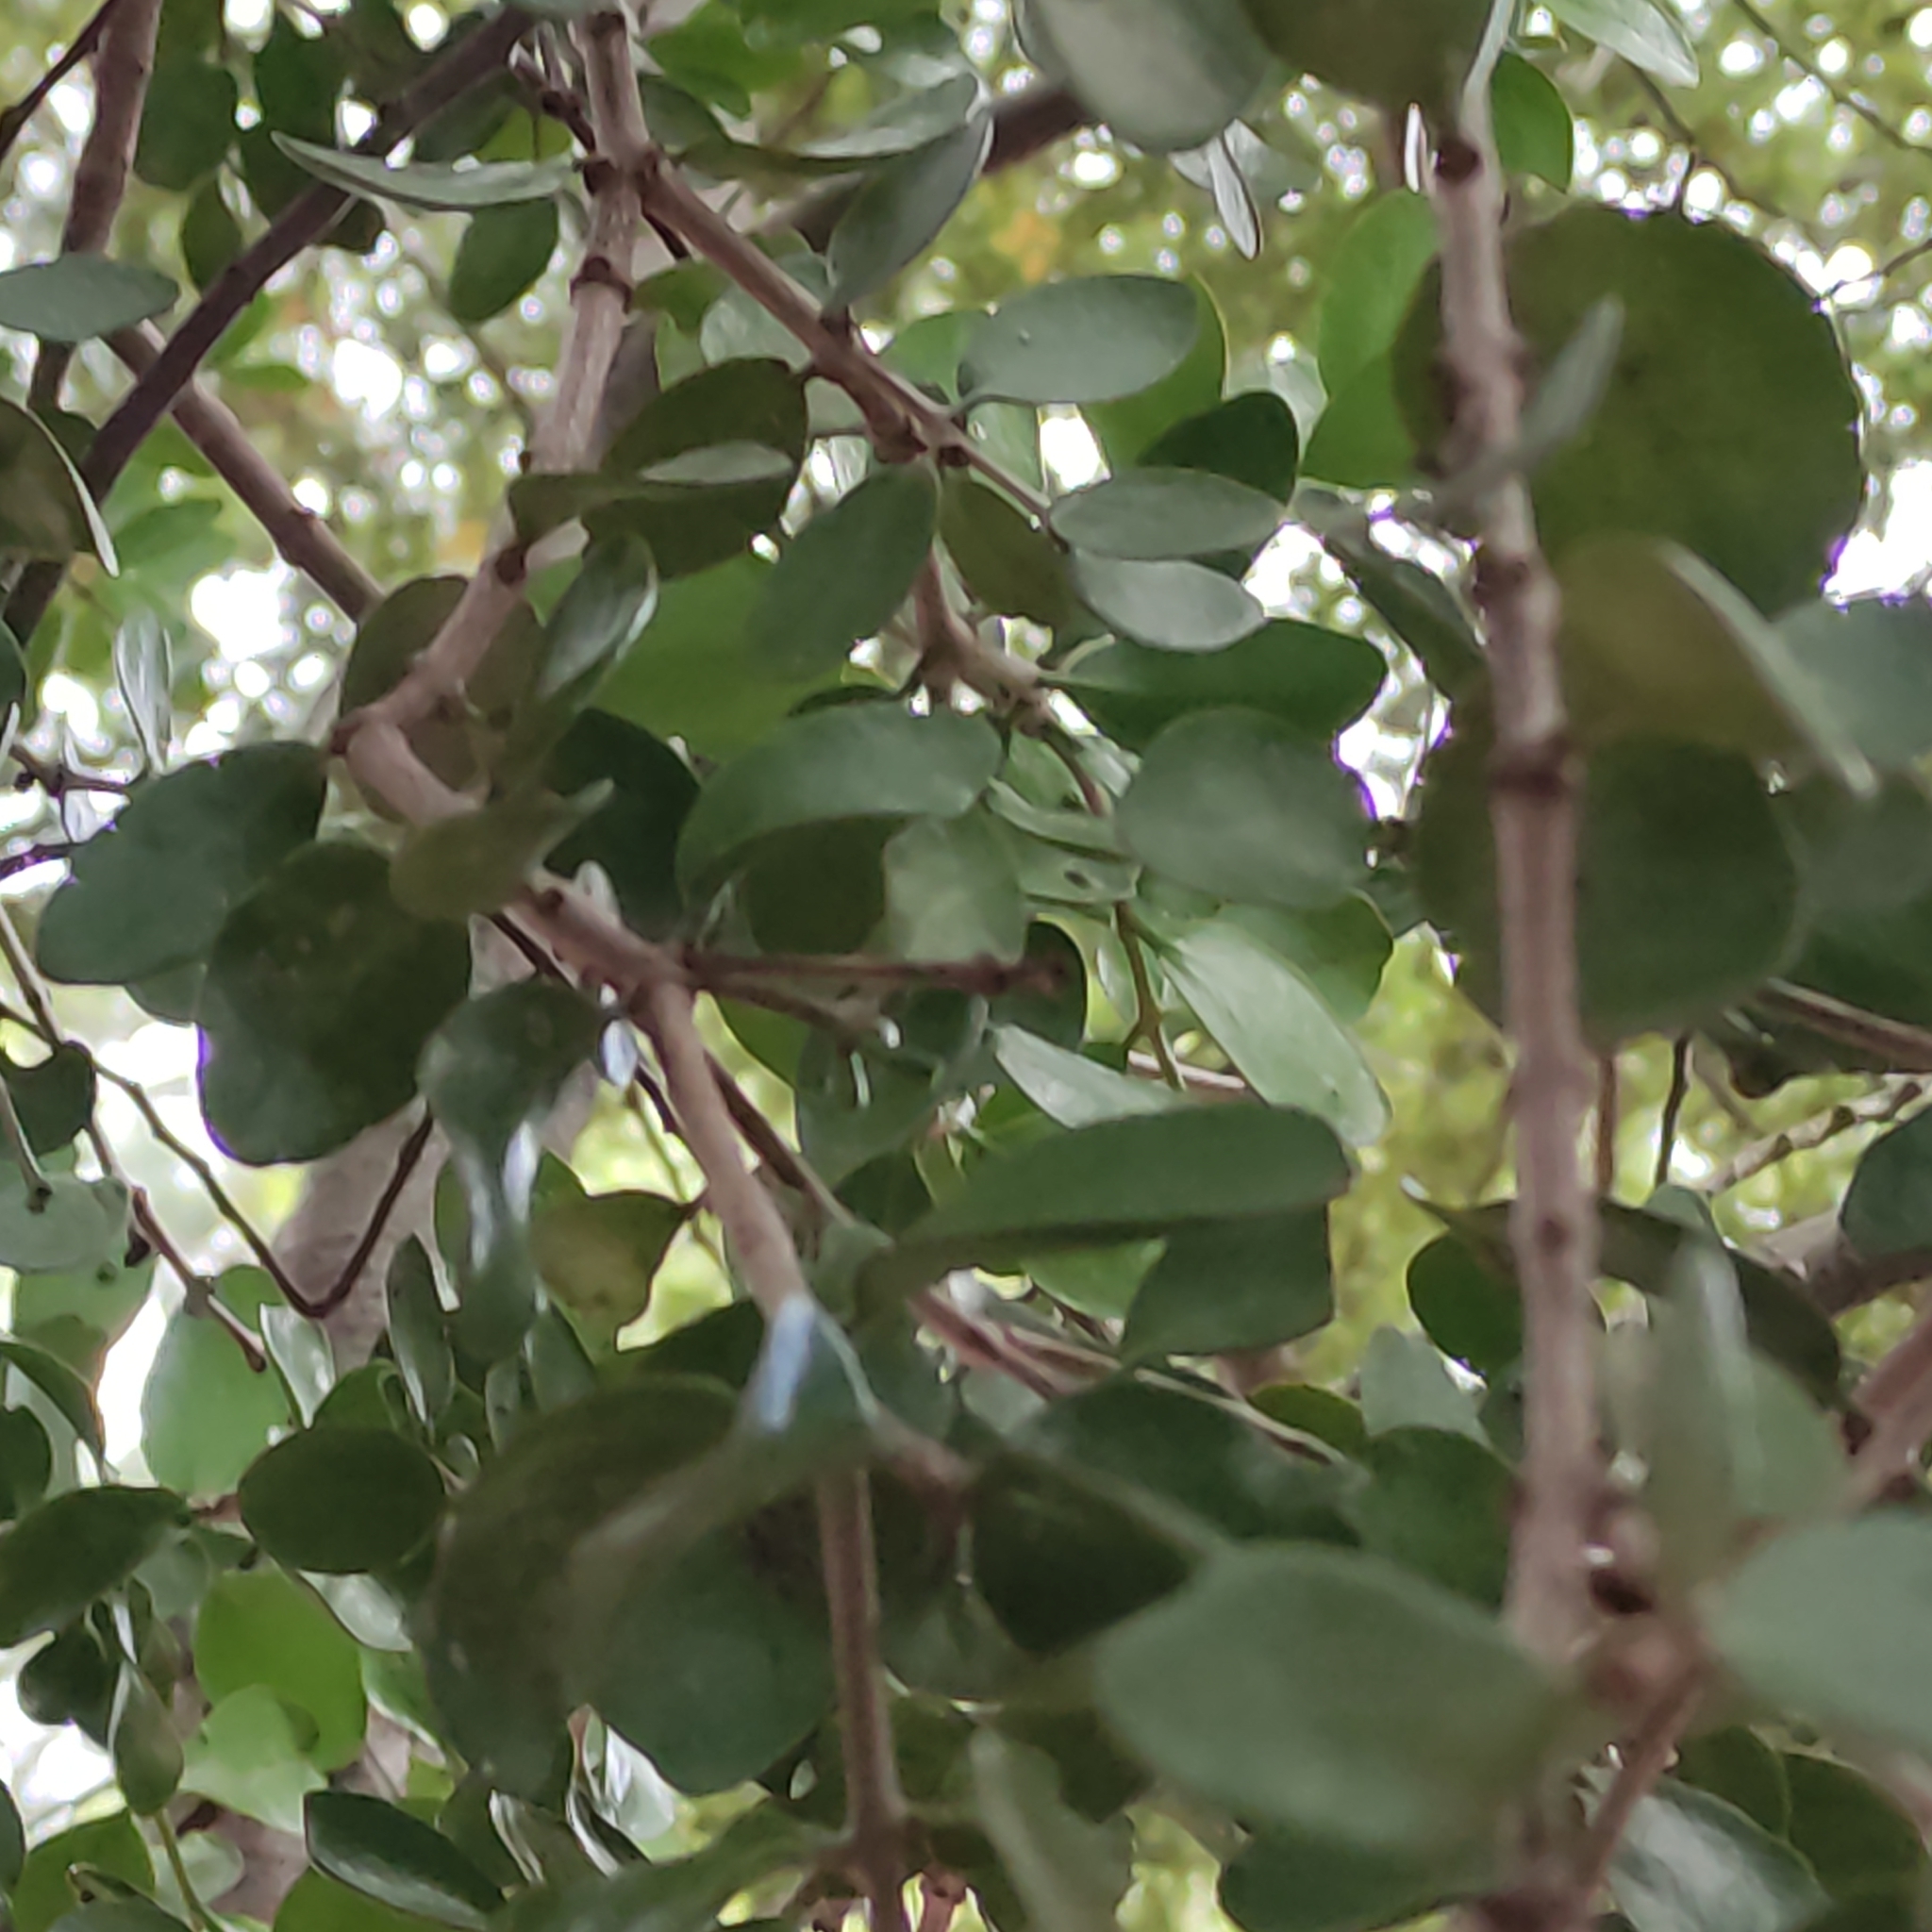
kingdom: Plantae
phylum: Tracheophyta
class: Magnoliopsida
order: Santalales
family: Loranthaceae
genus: Peraxilla
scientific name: Peraxilla tetrapetala
